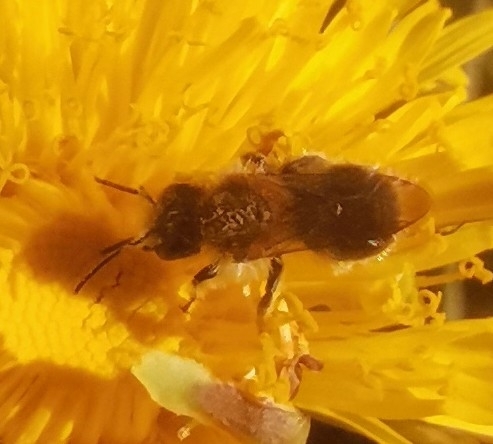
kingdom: Animalia
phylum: Arthropoda
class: Insecta
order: Hymenoptera
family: Andrenidae
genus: Andrena
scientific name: Andrena haemorrhoa
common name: Early mining bee
